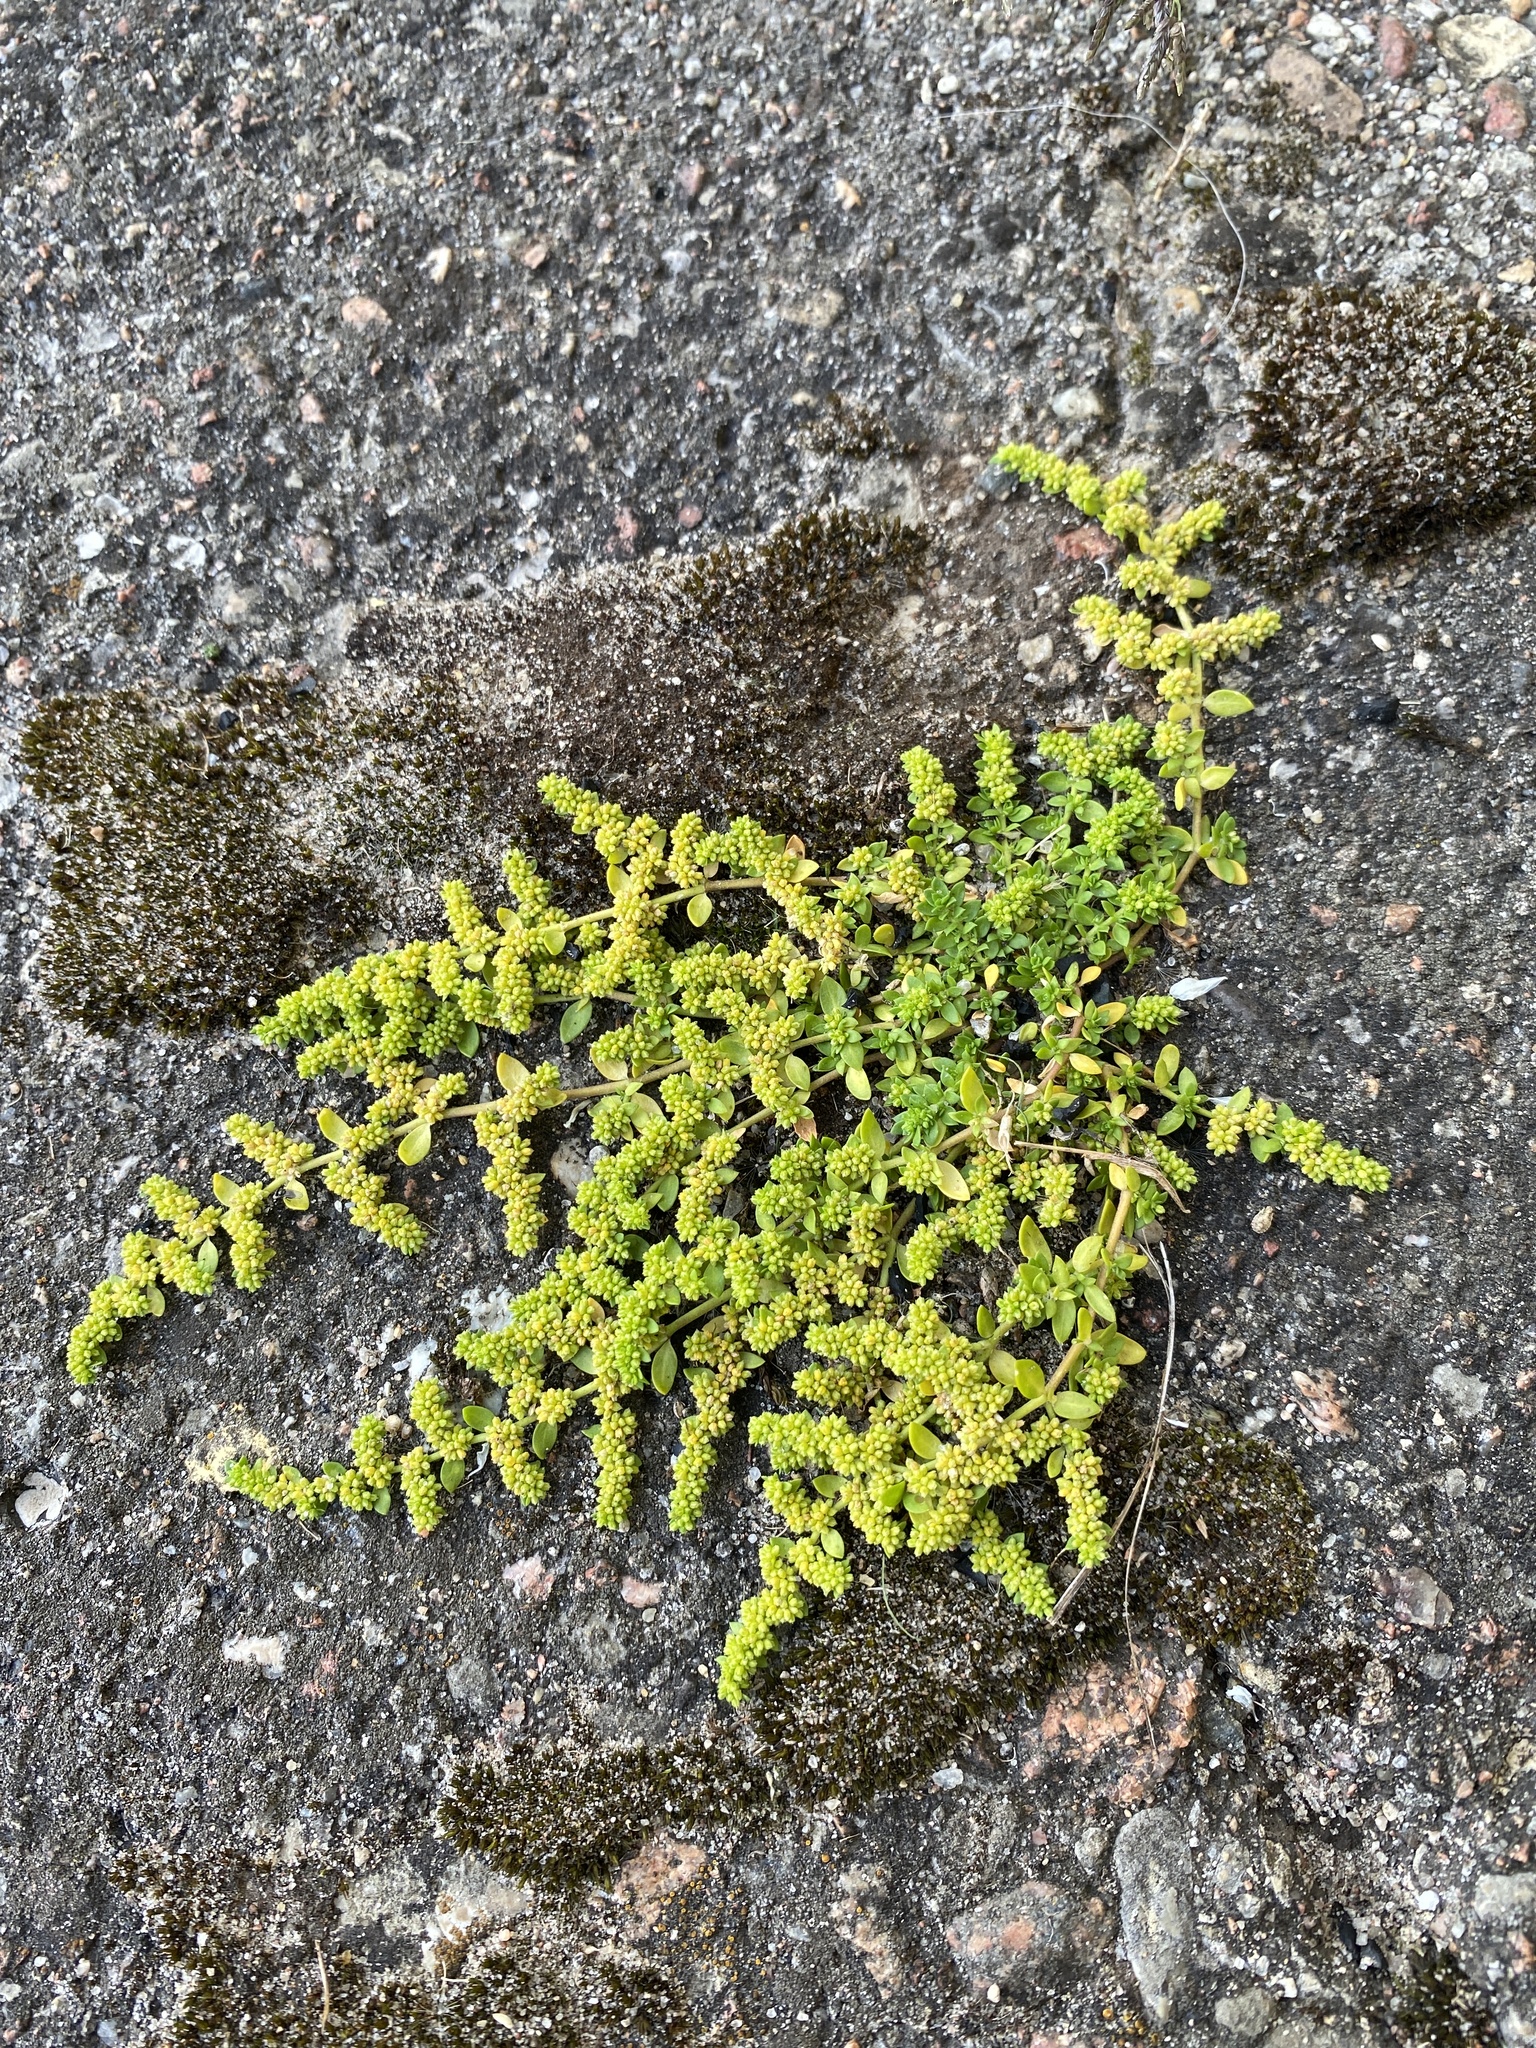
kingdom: Plantae
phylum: Tracheophyta
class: Magnoliopsida
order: Caryophyllales
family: Caryophyllaceae
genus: Herniaria
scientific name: Herniaria glabra
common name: Smooth rupturewort
